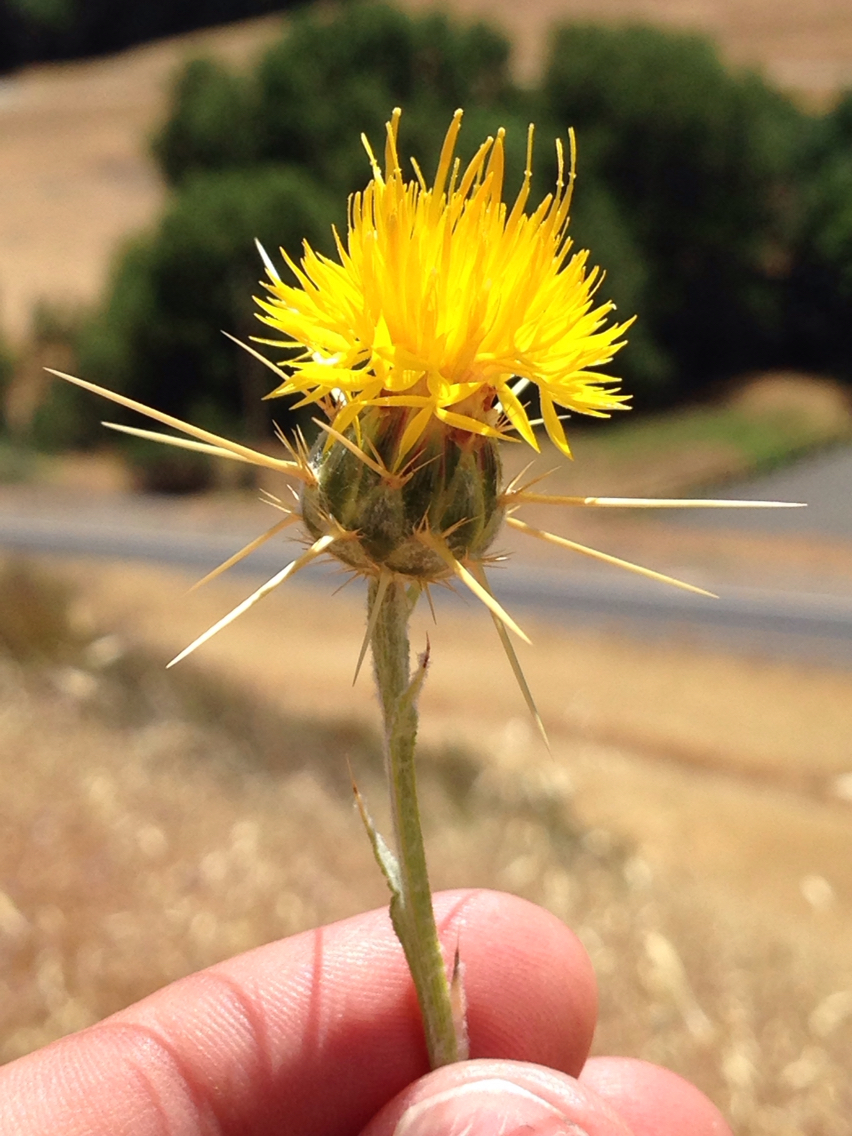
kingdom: Plantae
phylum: Tracheophyta
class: Magnoliopsida
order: Asterales
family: Asteraceae
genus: Centaurea
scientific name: Centaurea solstitialis
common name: Yellow star-thistle
